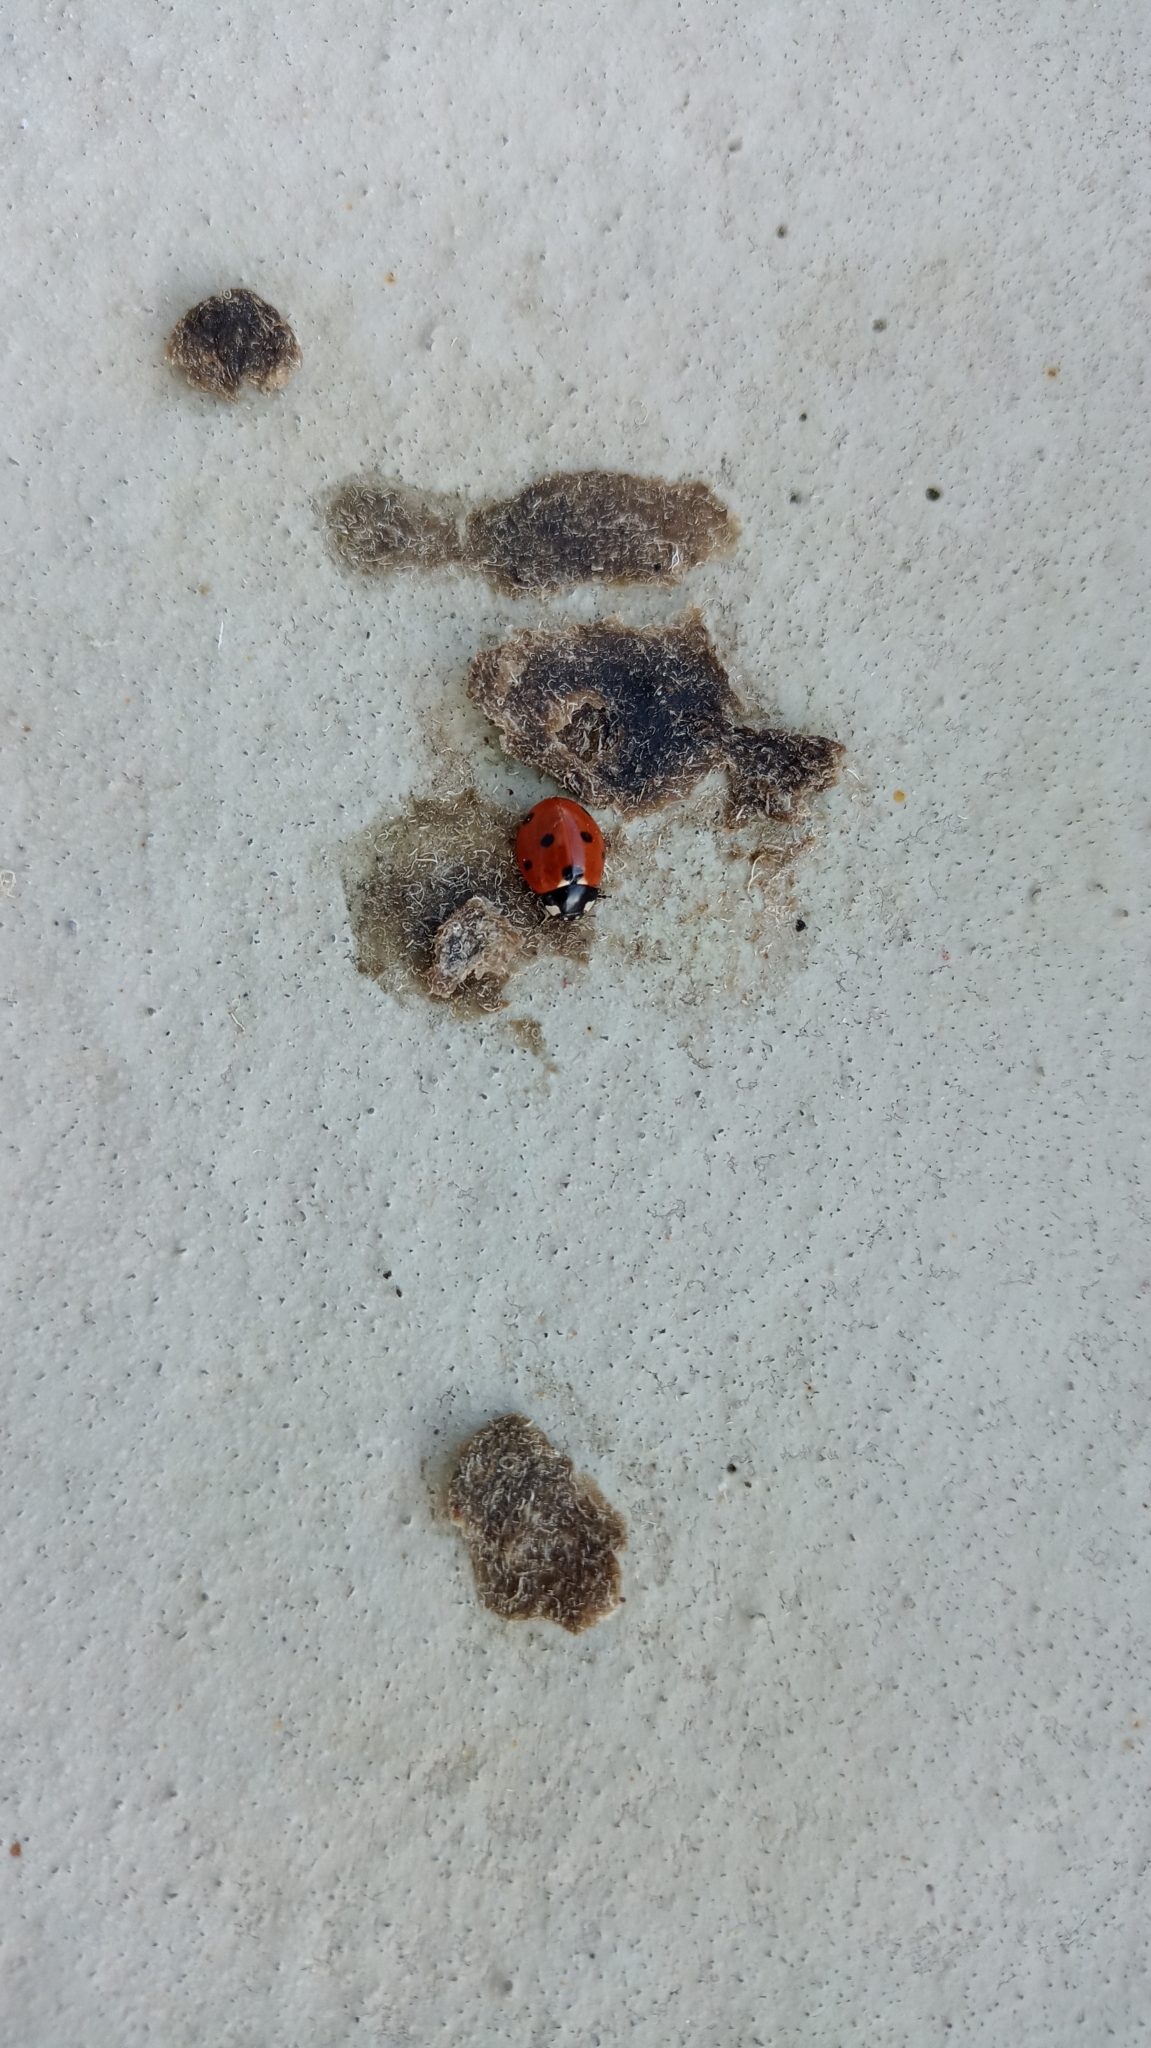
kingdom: Animalia
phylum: Arthropoda
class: Insecta
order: Coleoptera
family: Coccinellidae
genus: Coccinella
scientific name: Coccinella septempunctata
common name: Sevenspotted lady beetle
